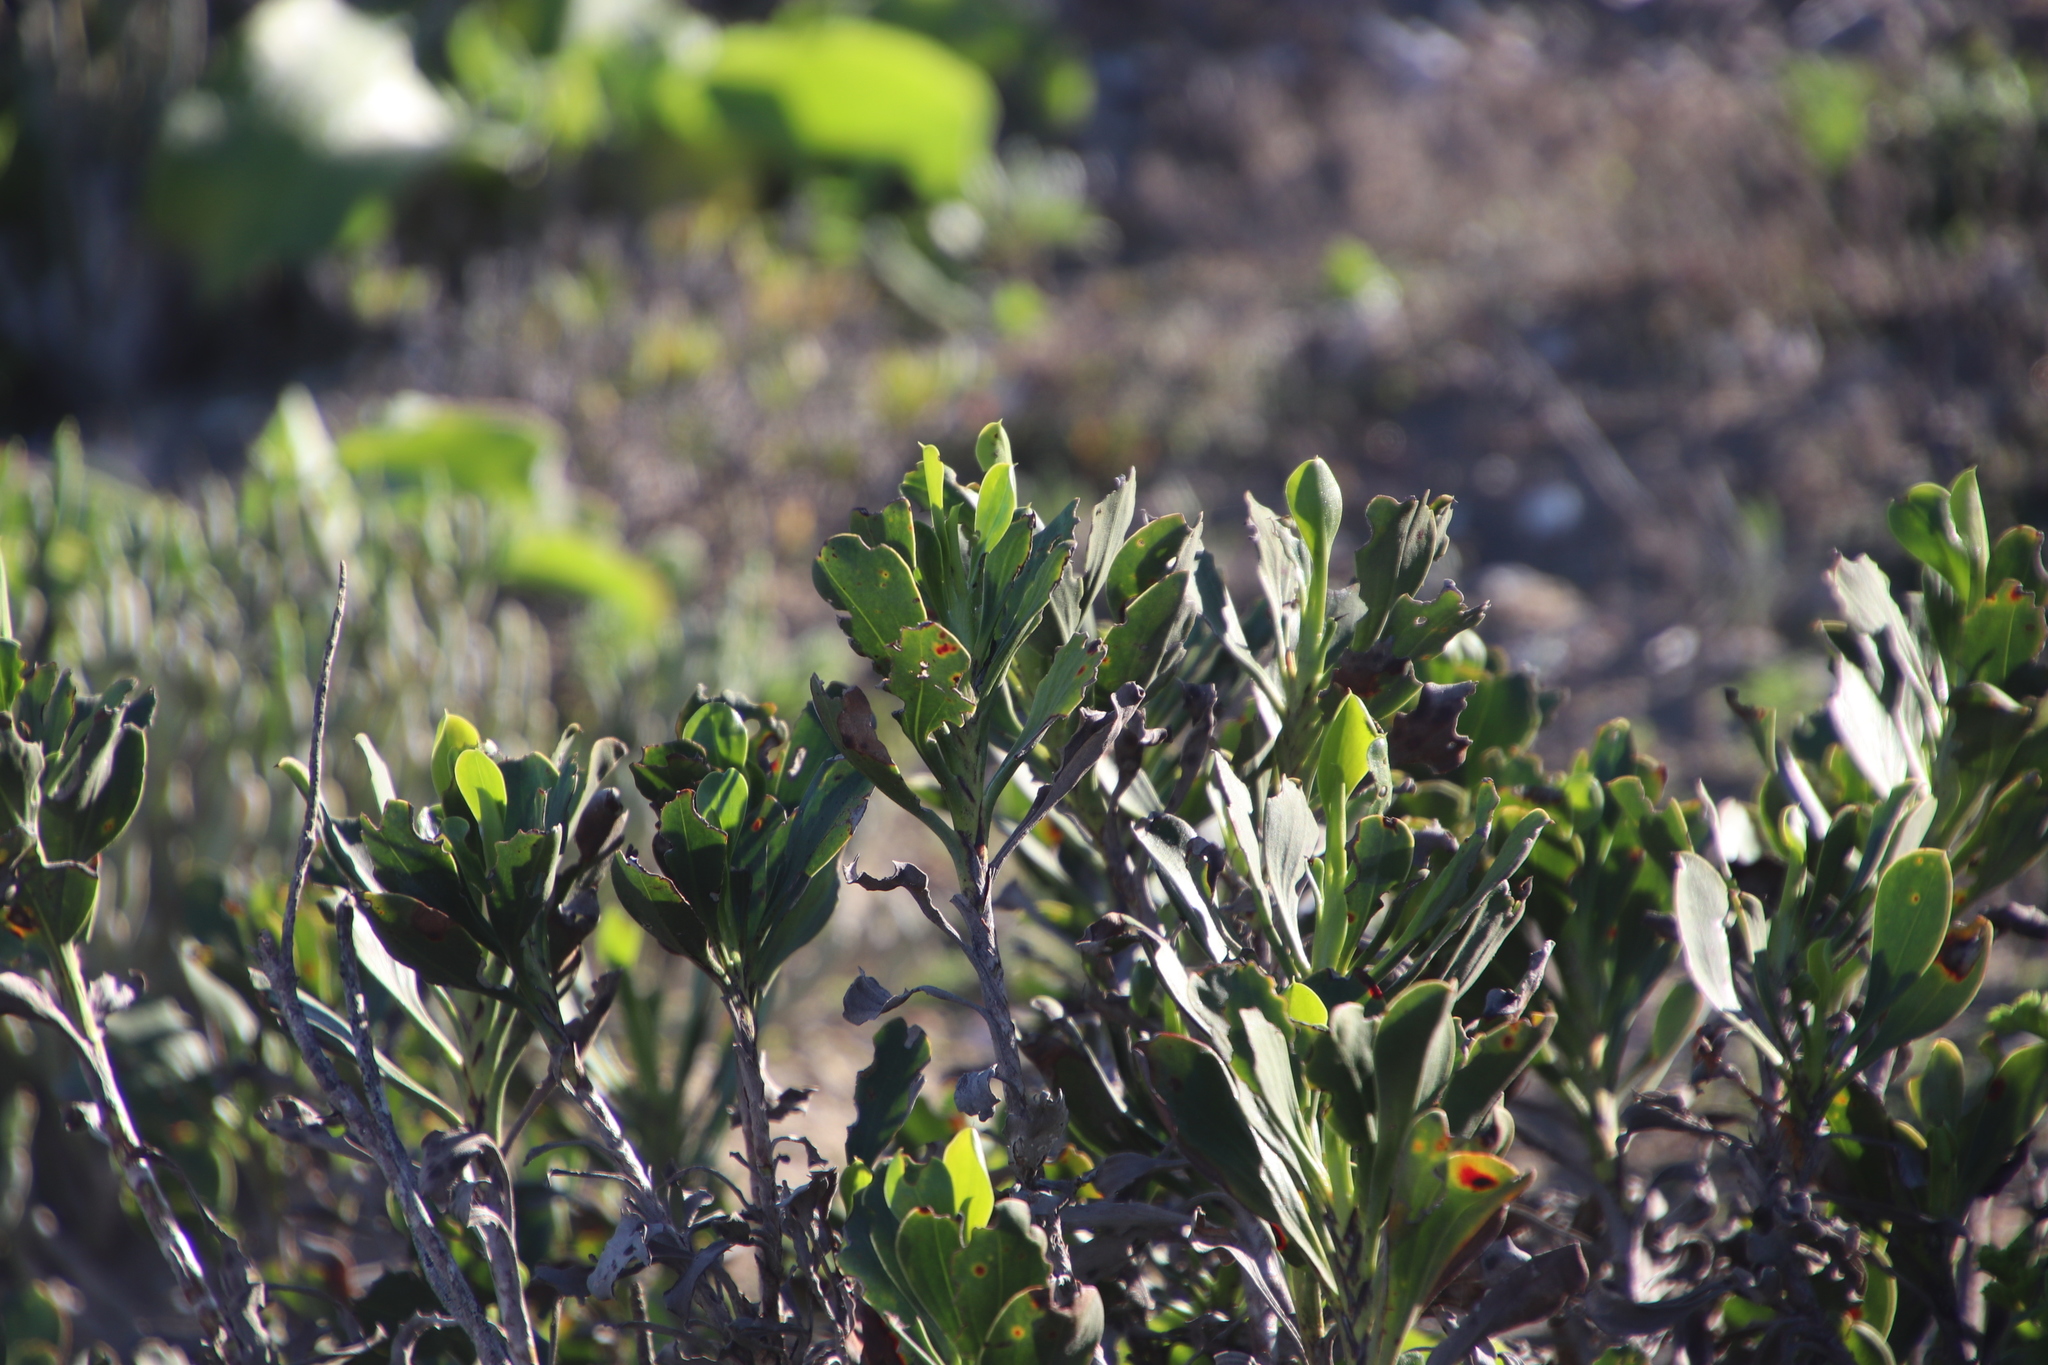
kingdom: Plantae
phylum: Tracheophyta
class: Magnoliopsida
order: Caryophyllales
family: Plumbaginaceae
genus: Limonium
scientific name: Limonium peregrinum
